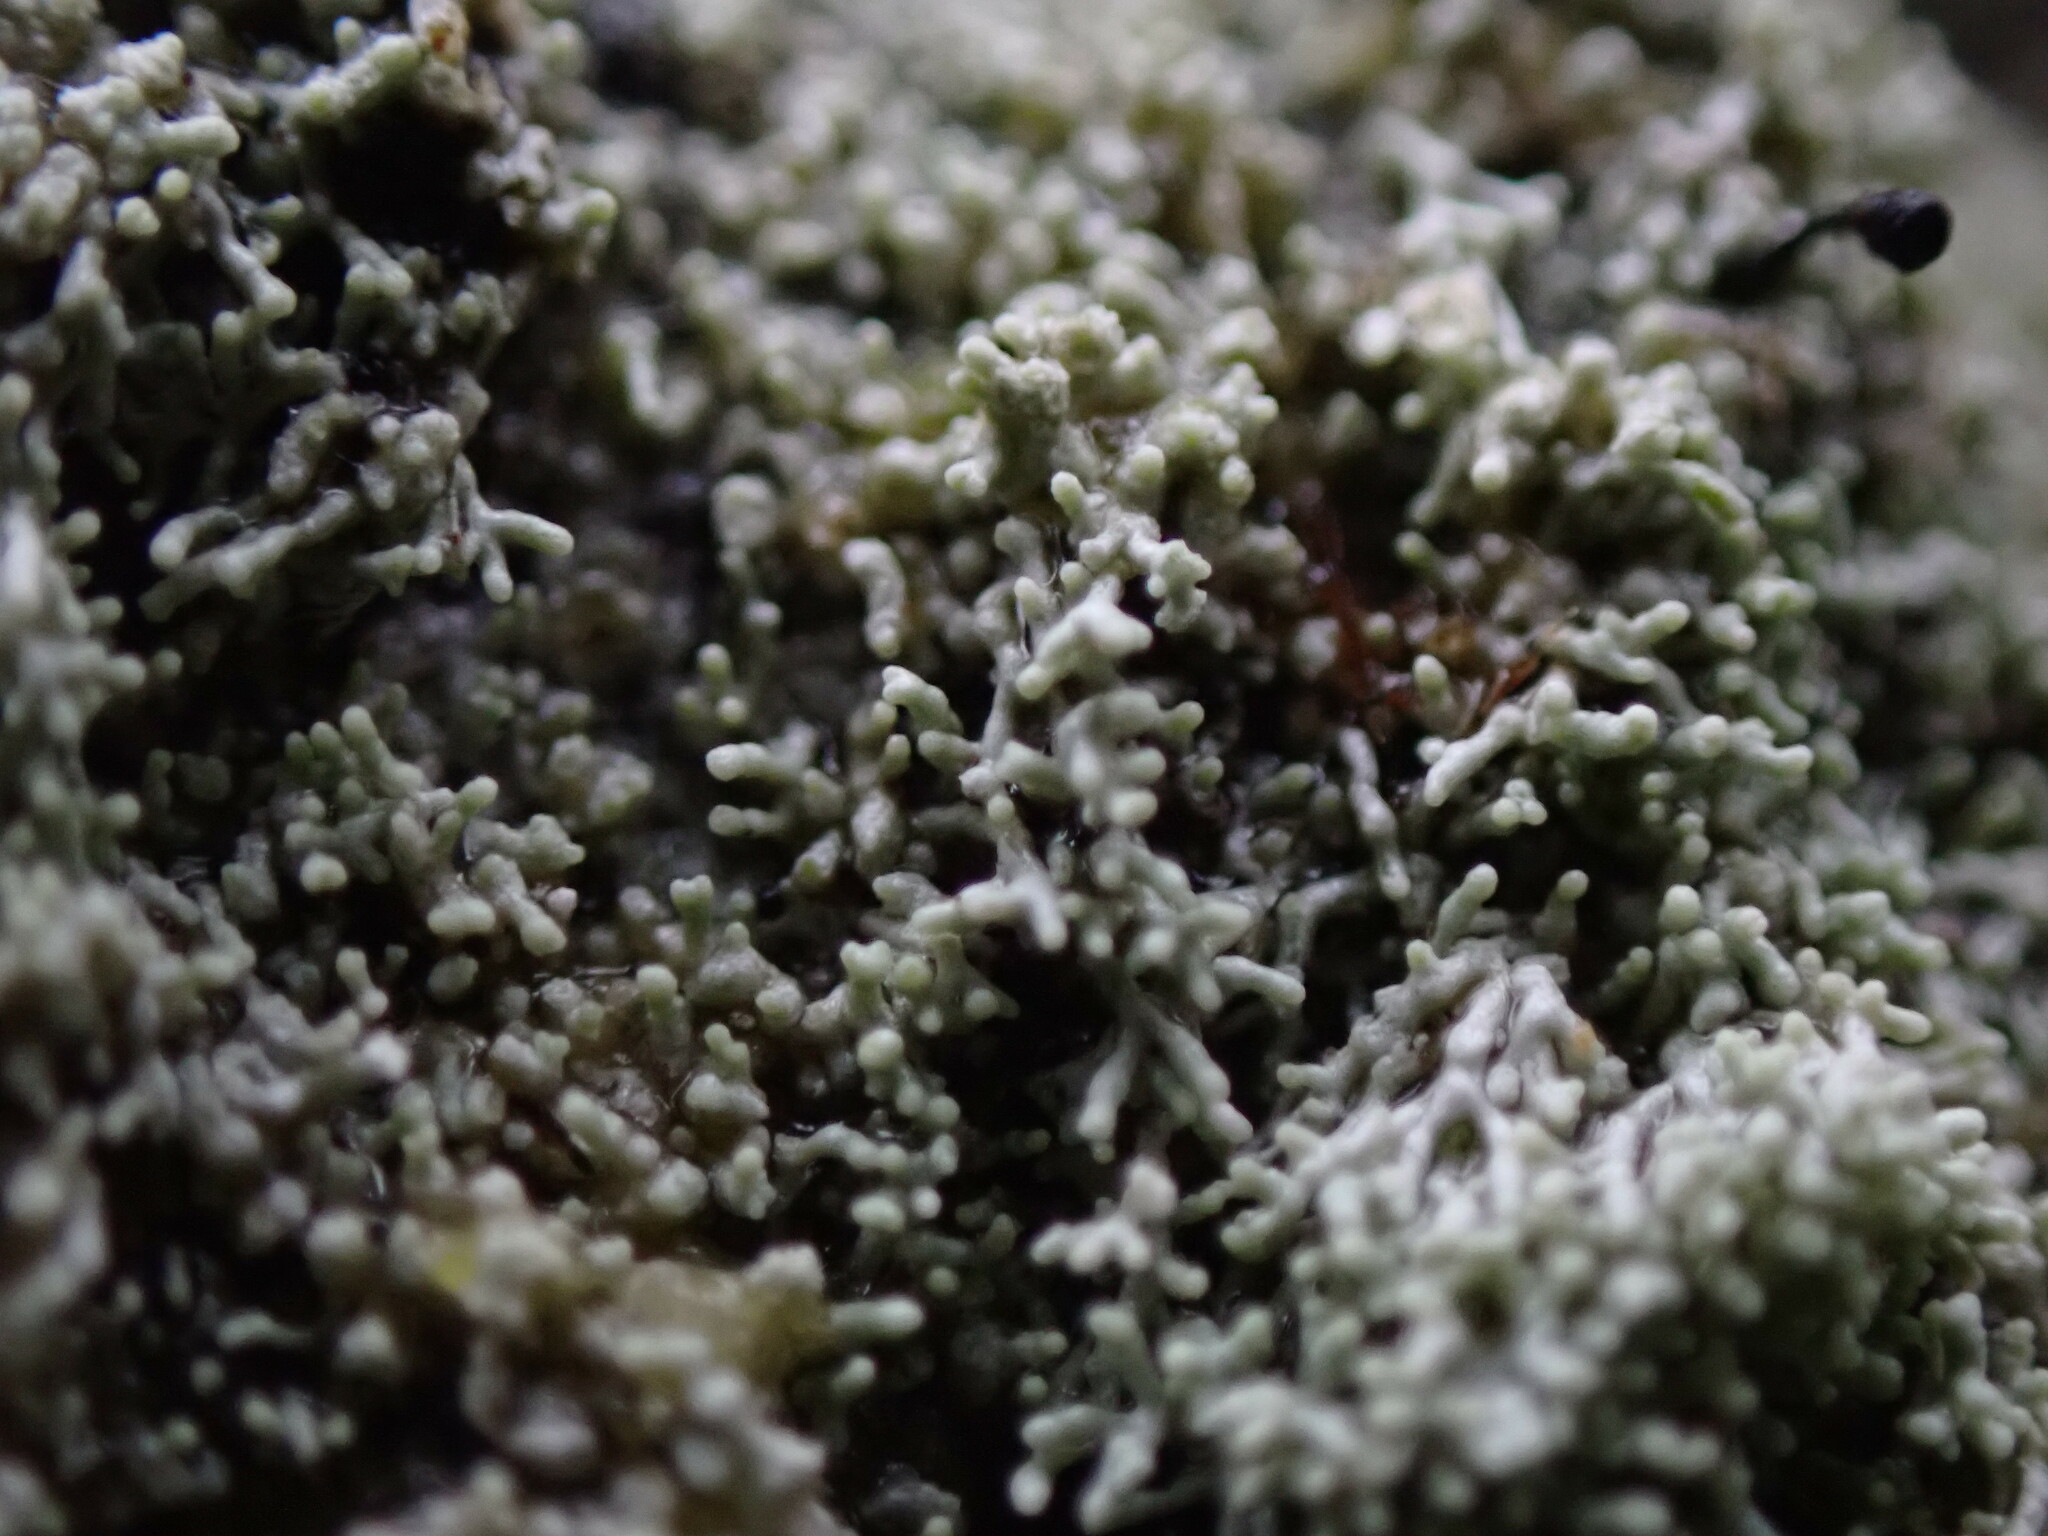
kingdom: Fungi
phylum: Ascomycota
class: Lecanoromycetes
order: Pertusariales
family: Pertusariaceae
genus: Loxosporopsis
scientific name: Loxosporopsis corallifera
